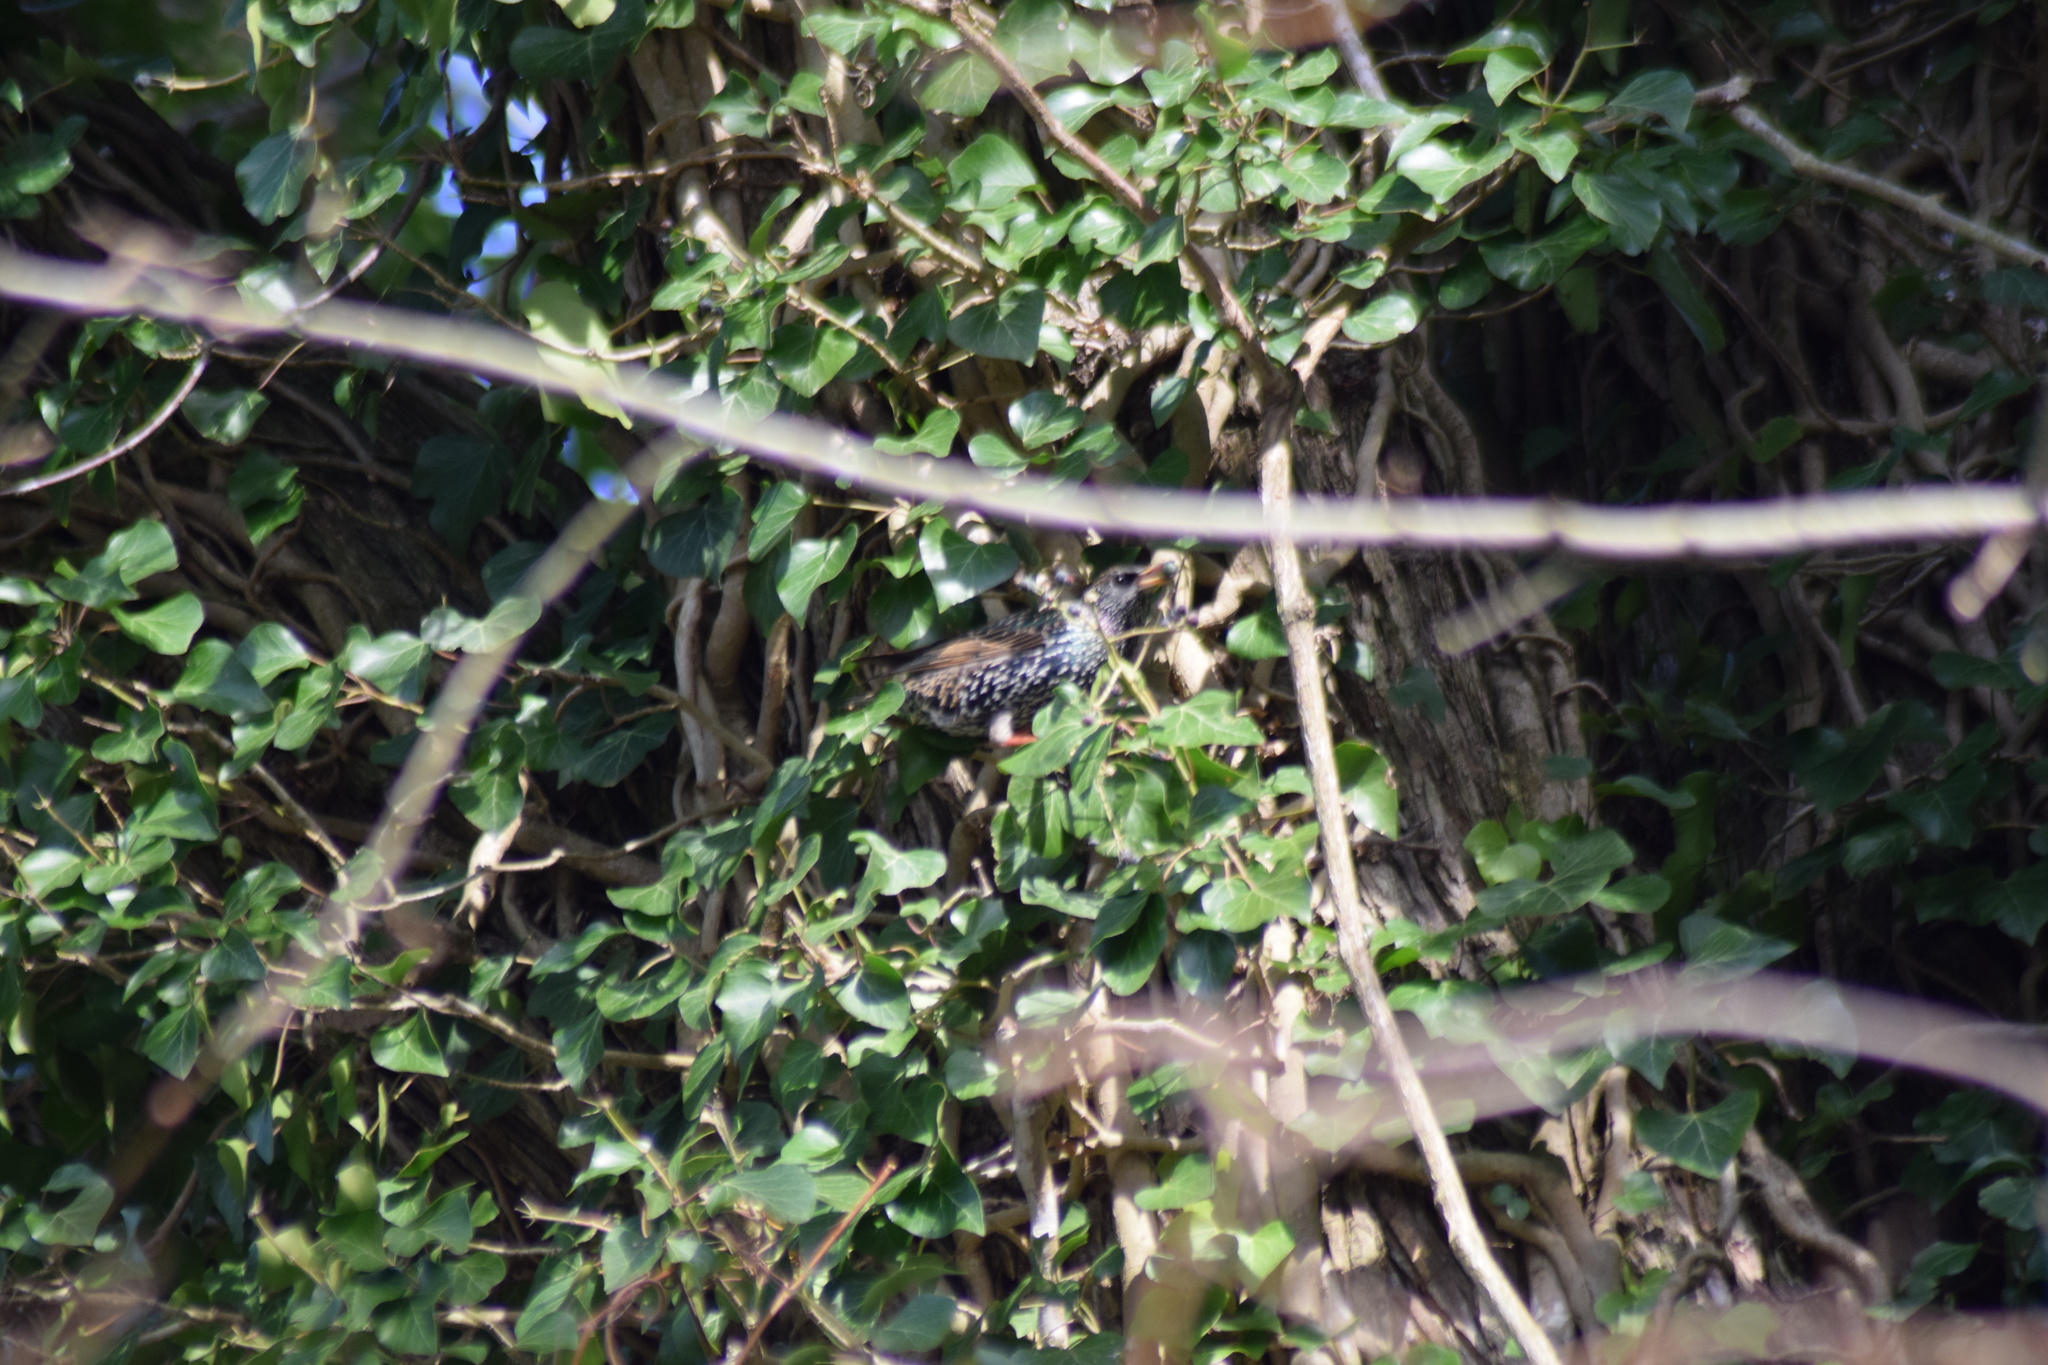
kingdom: Animalia
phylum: Chordata
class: Aves
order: Passeriformes
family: Sturnidae
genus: Sturnus
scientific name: Sturnus vulgaris
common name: Common starling
